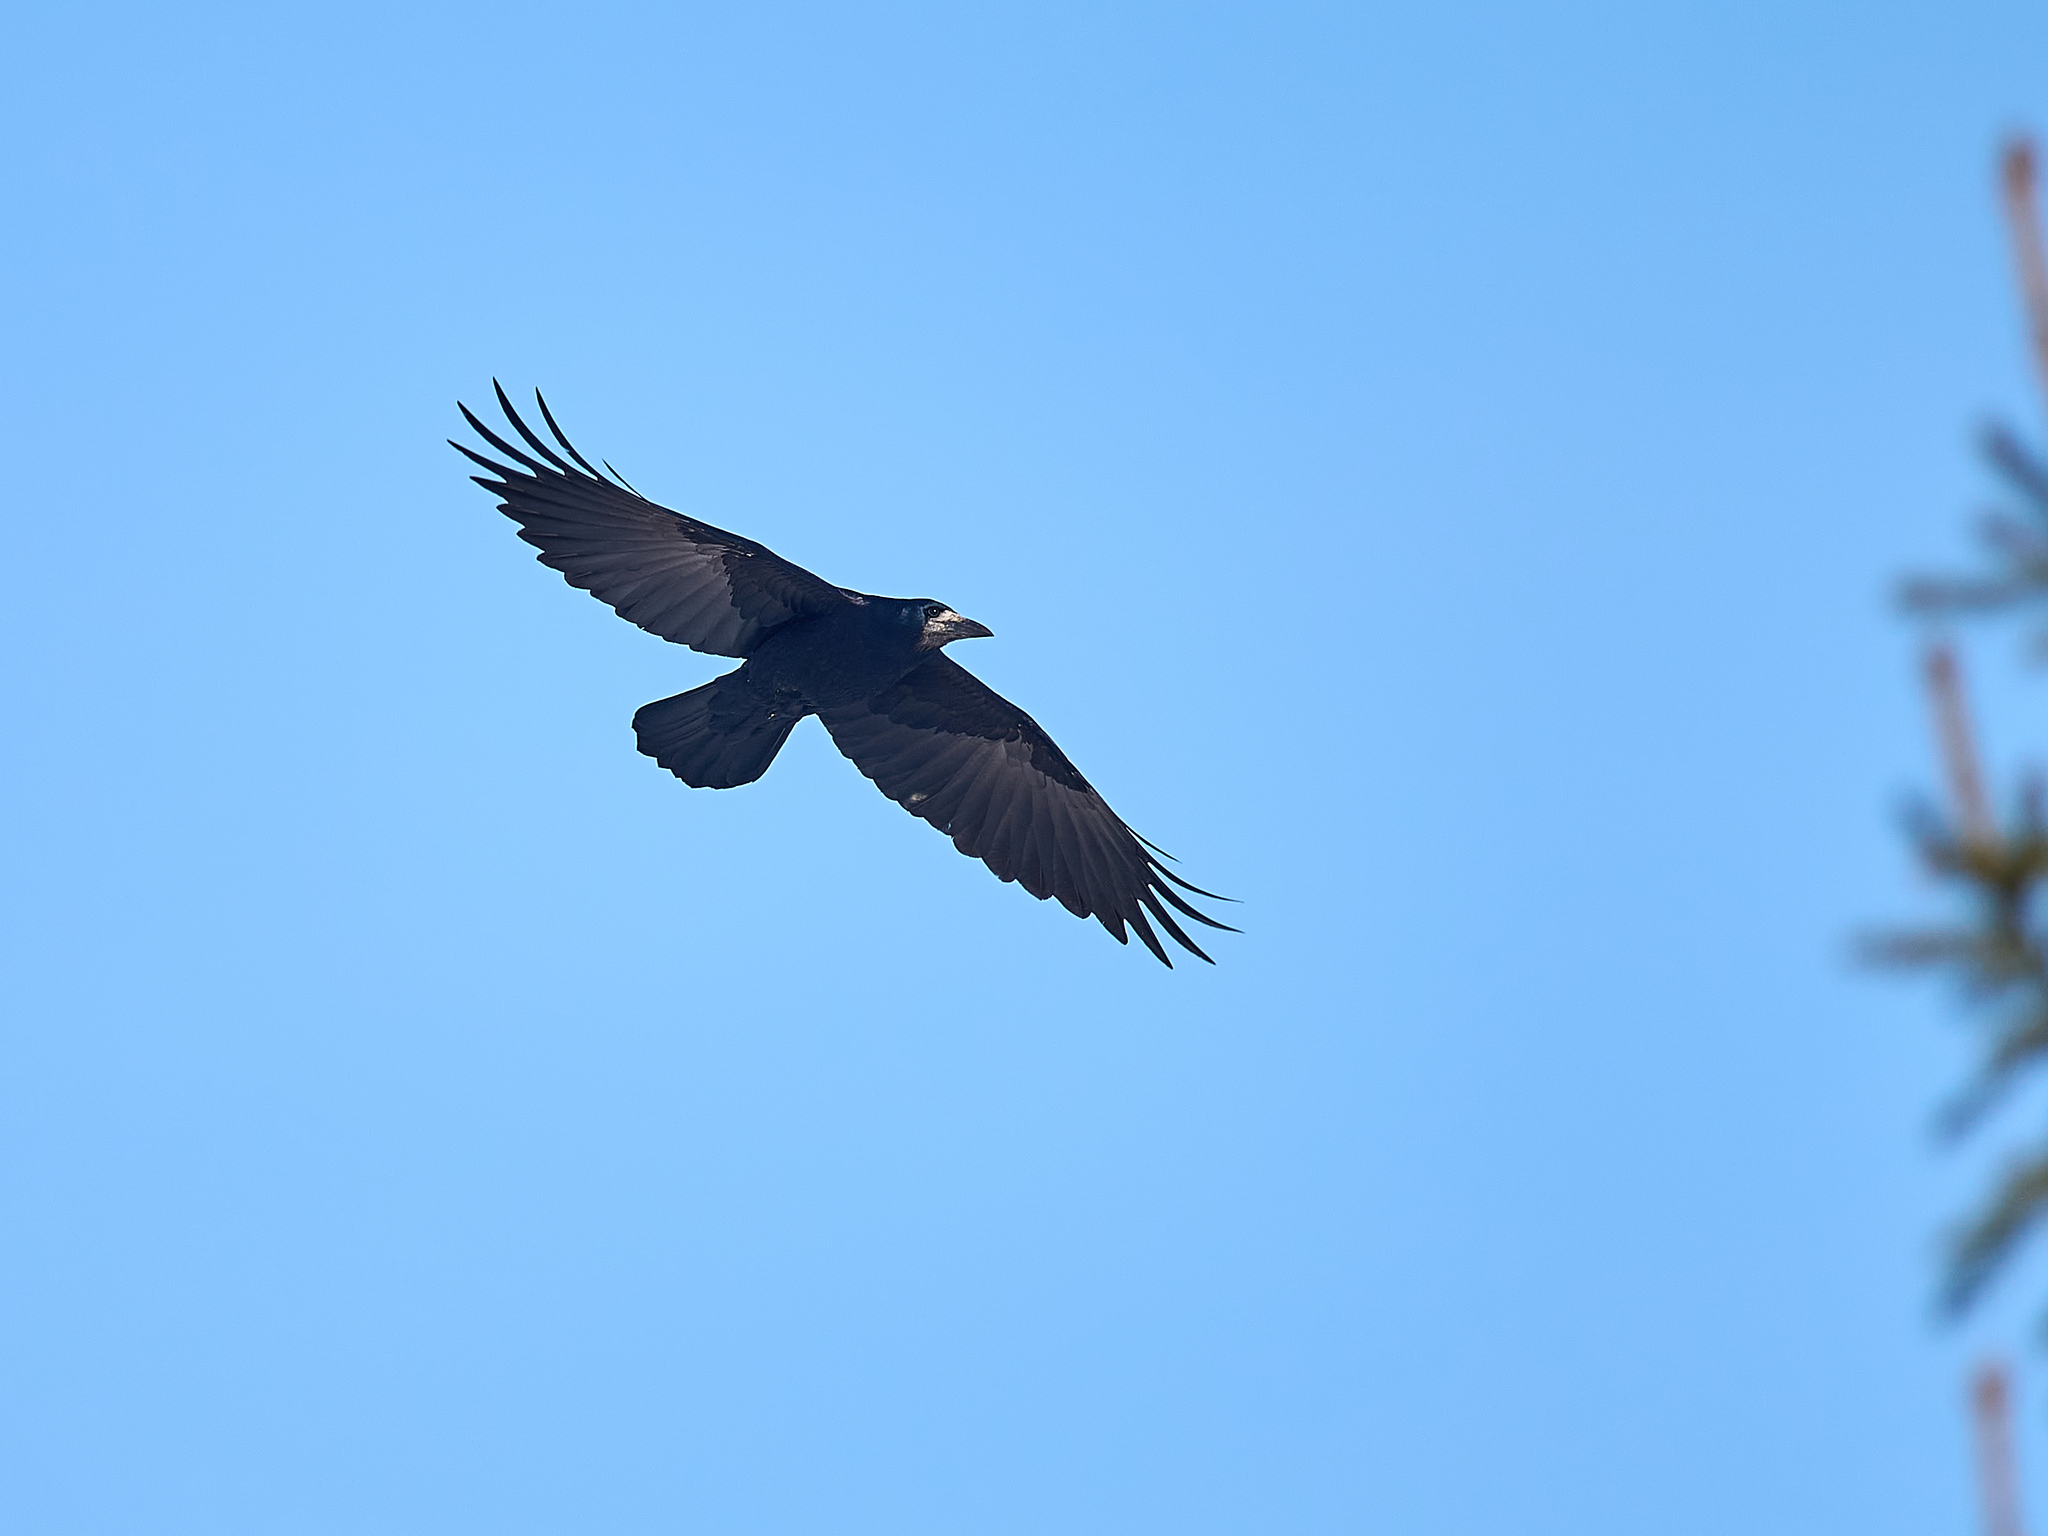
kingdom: Animalia
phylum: Chordata
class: Aves
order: Passeriformes
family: Corvidae
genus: Corvus
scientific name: Corvus frugilegus
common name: Rook
